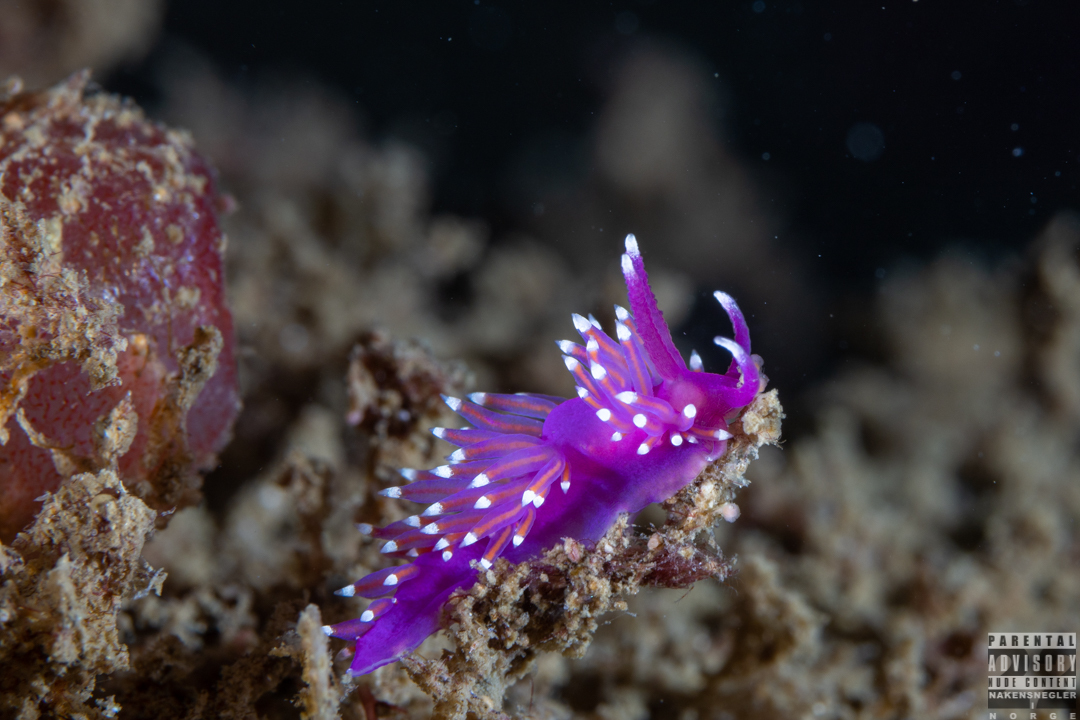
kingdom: Animalia
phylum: Mollusca
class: Gastropoda
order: Nudibranchia
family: Flabellinidae
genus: Edmundsella
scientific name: Edmundsella pedata
